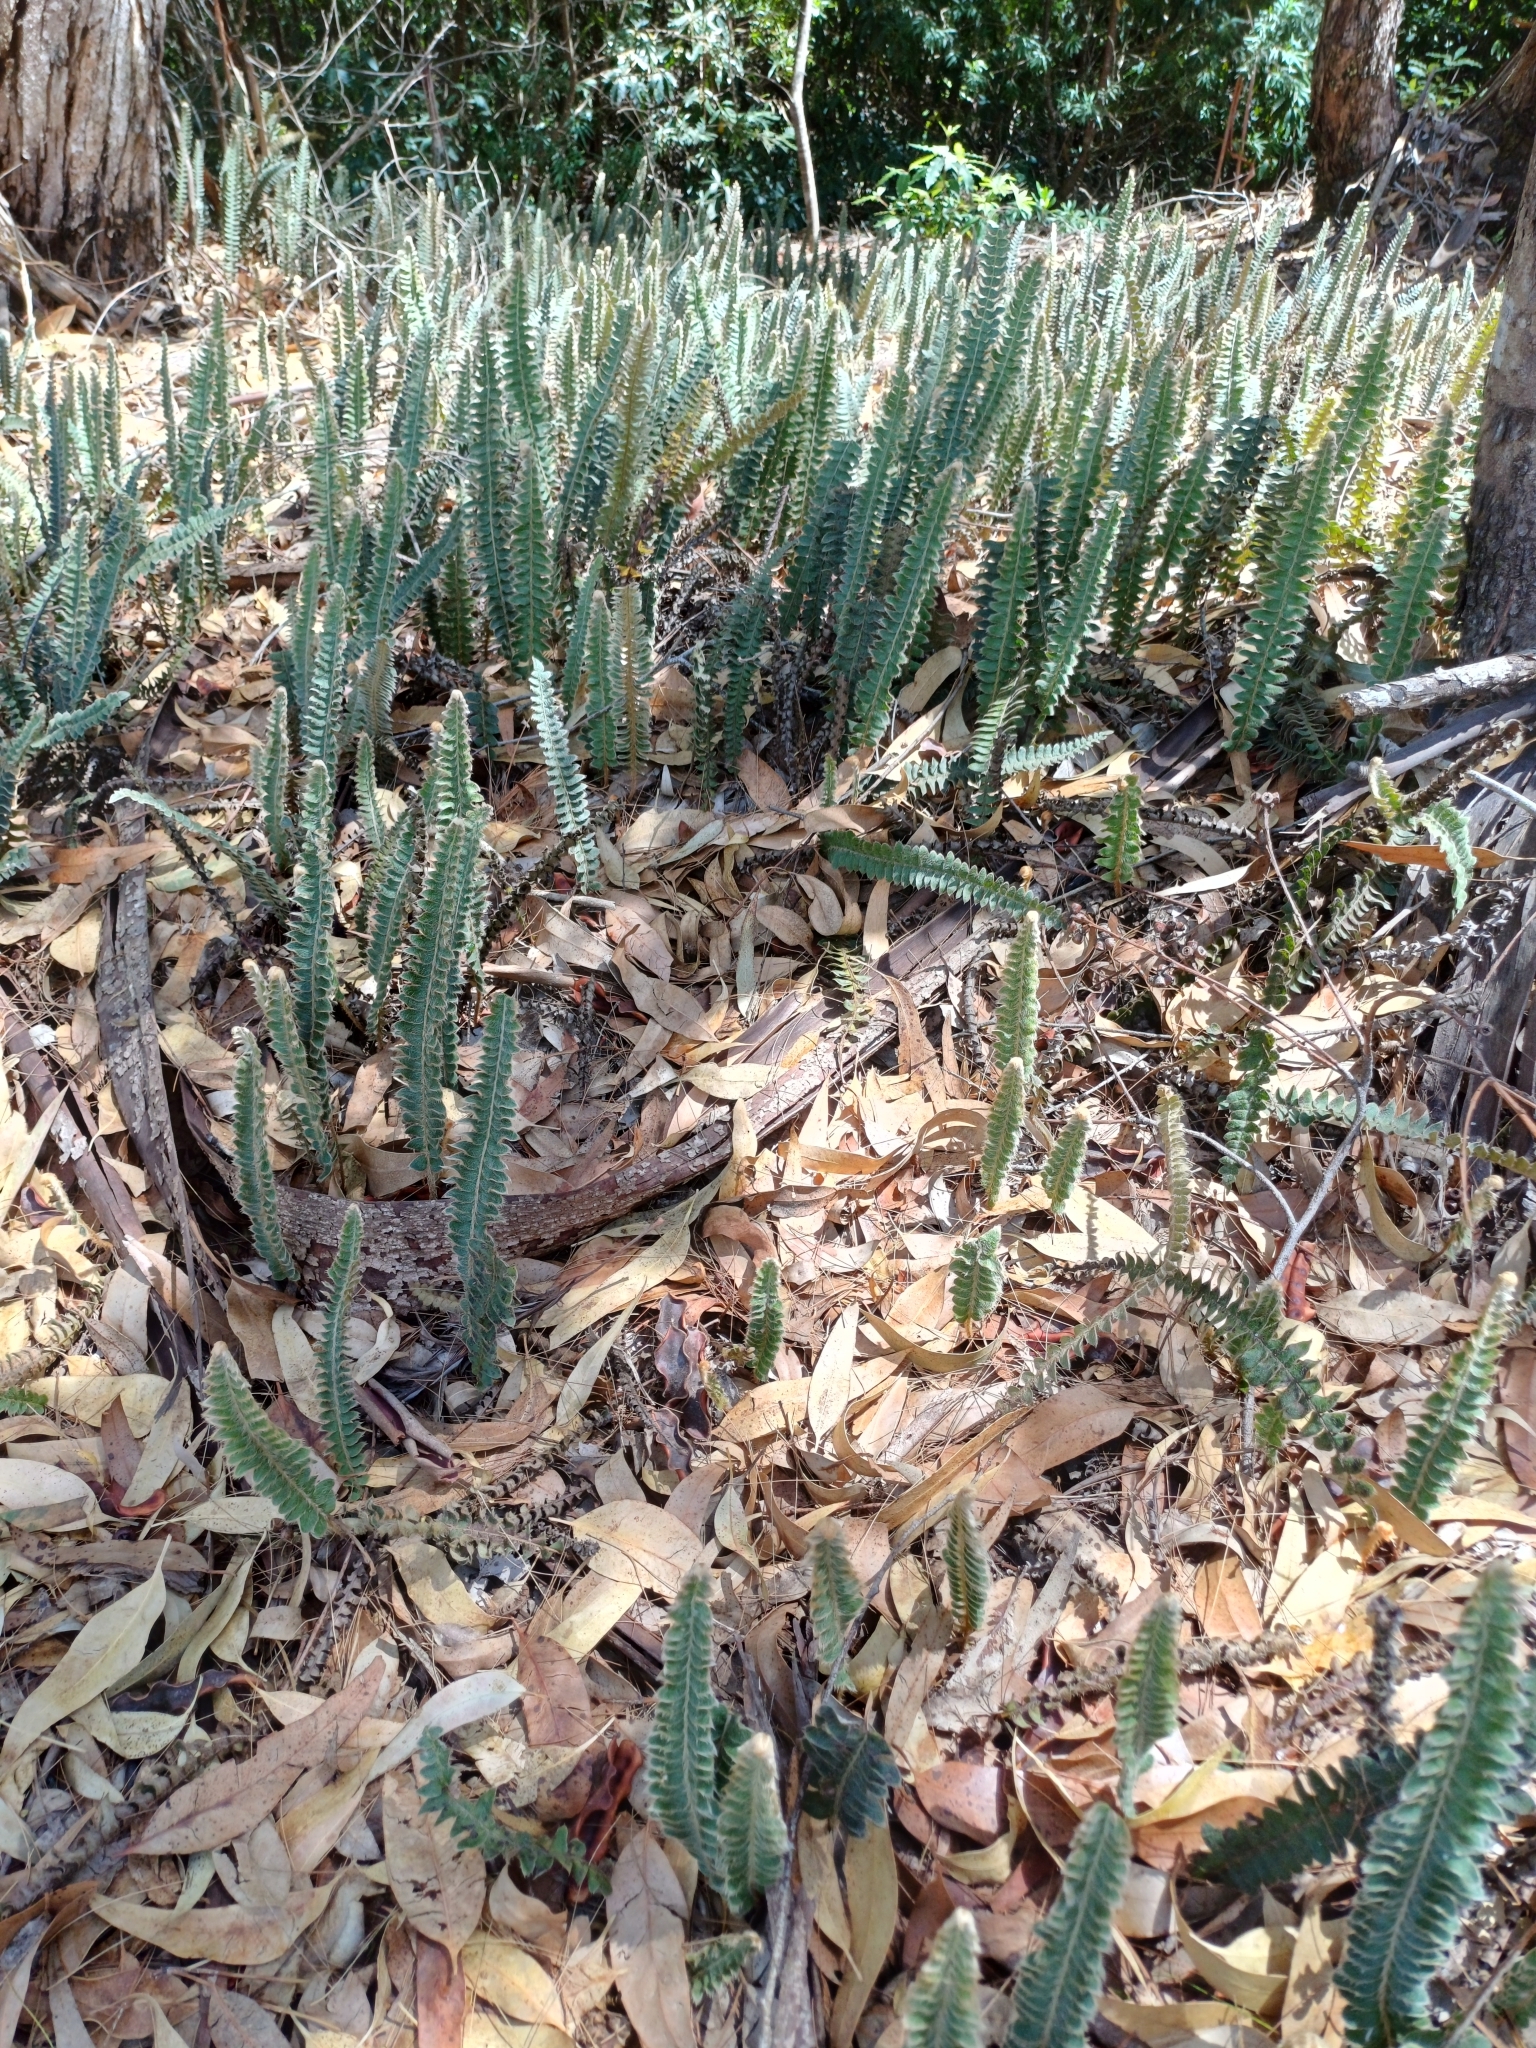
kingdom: Plantae
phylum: Tracheophyta
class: Polypodiopsida
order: Polypodiales
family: Polypodiaceae
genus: Pleopeltis
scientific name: Pleopeltis lepidopteris
